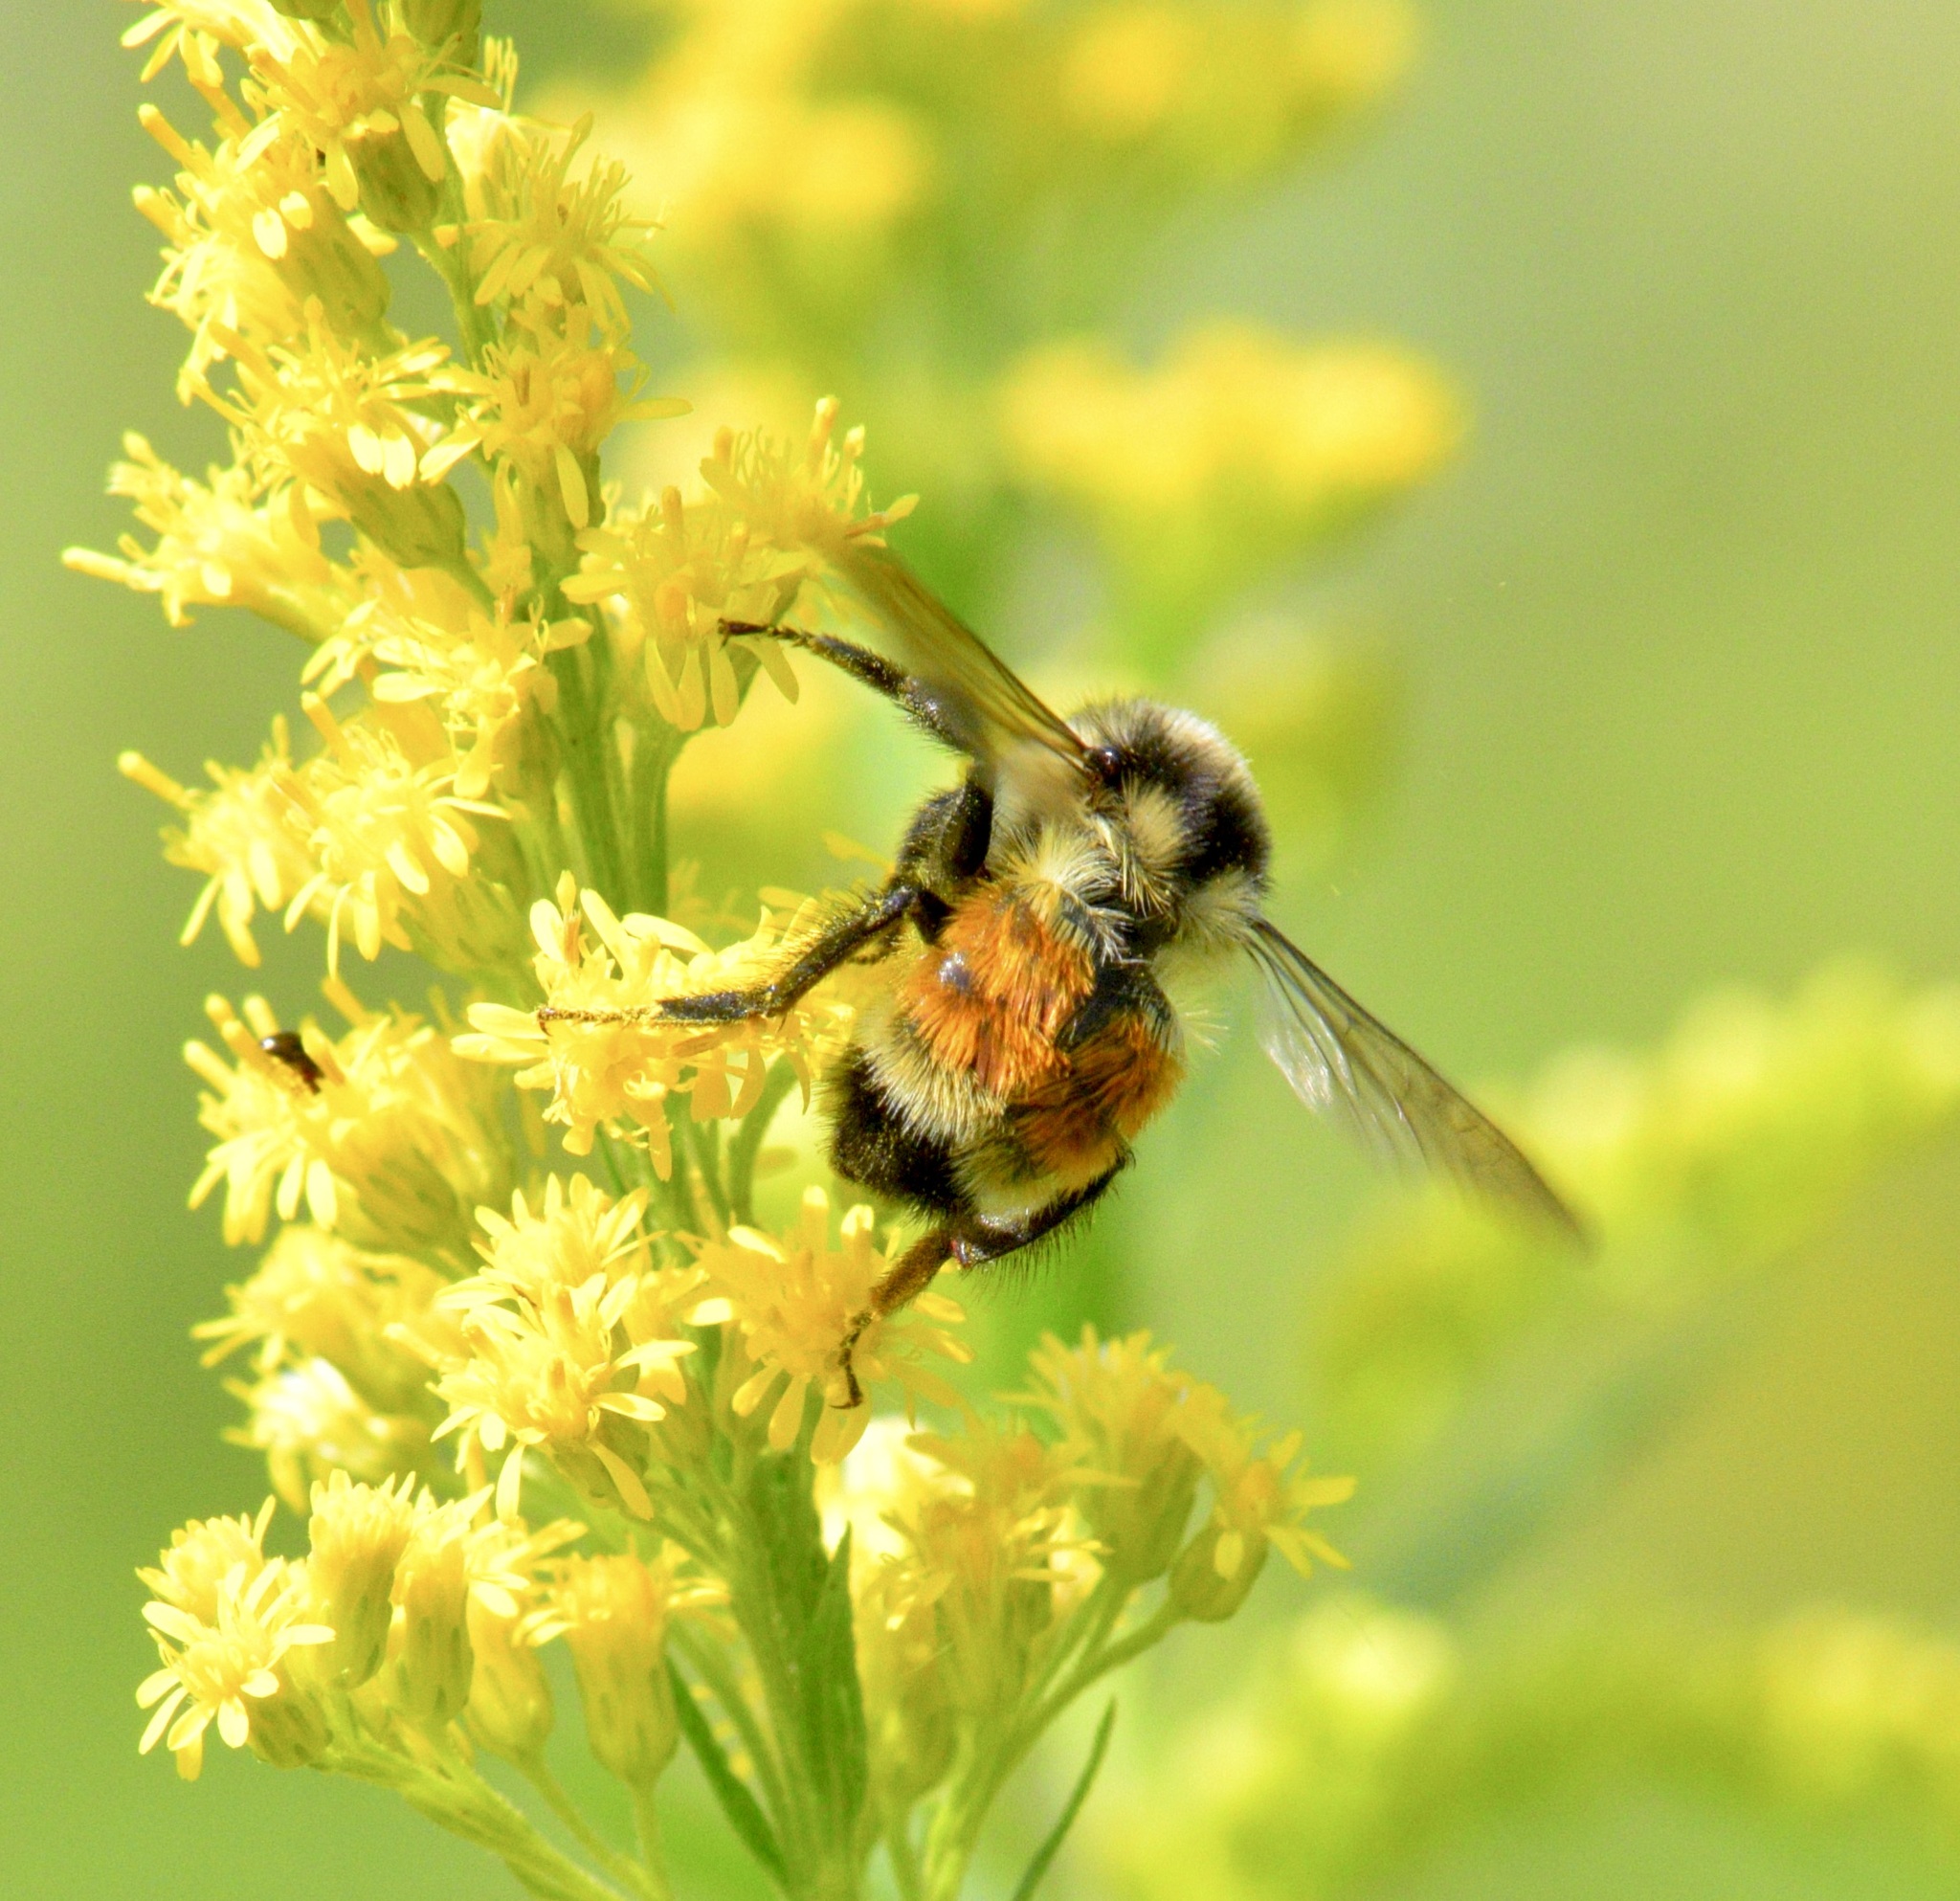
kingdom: Animalia
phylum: Arthropoda
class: Insecta
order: Hymenoptera
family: Apidae
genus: Bombus
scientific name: Bombus ternarius
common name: Tri-colored bumble bee
